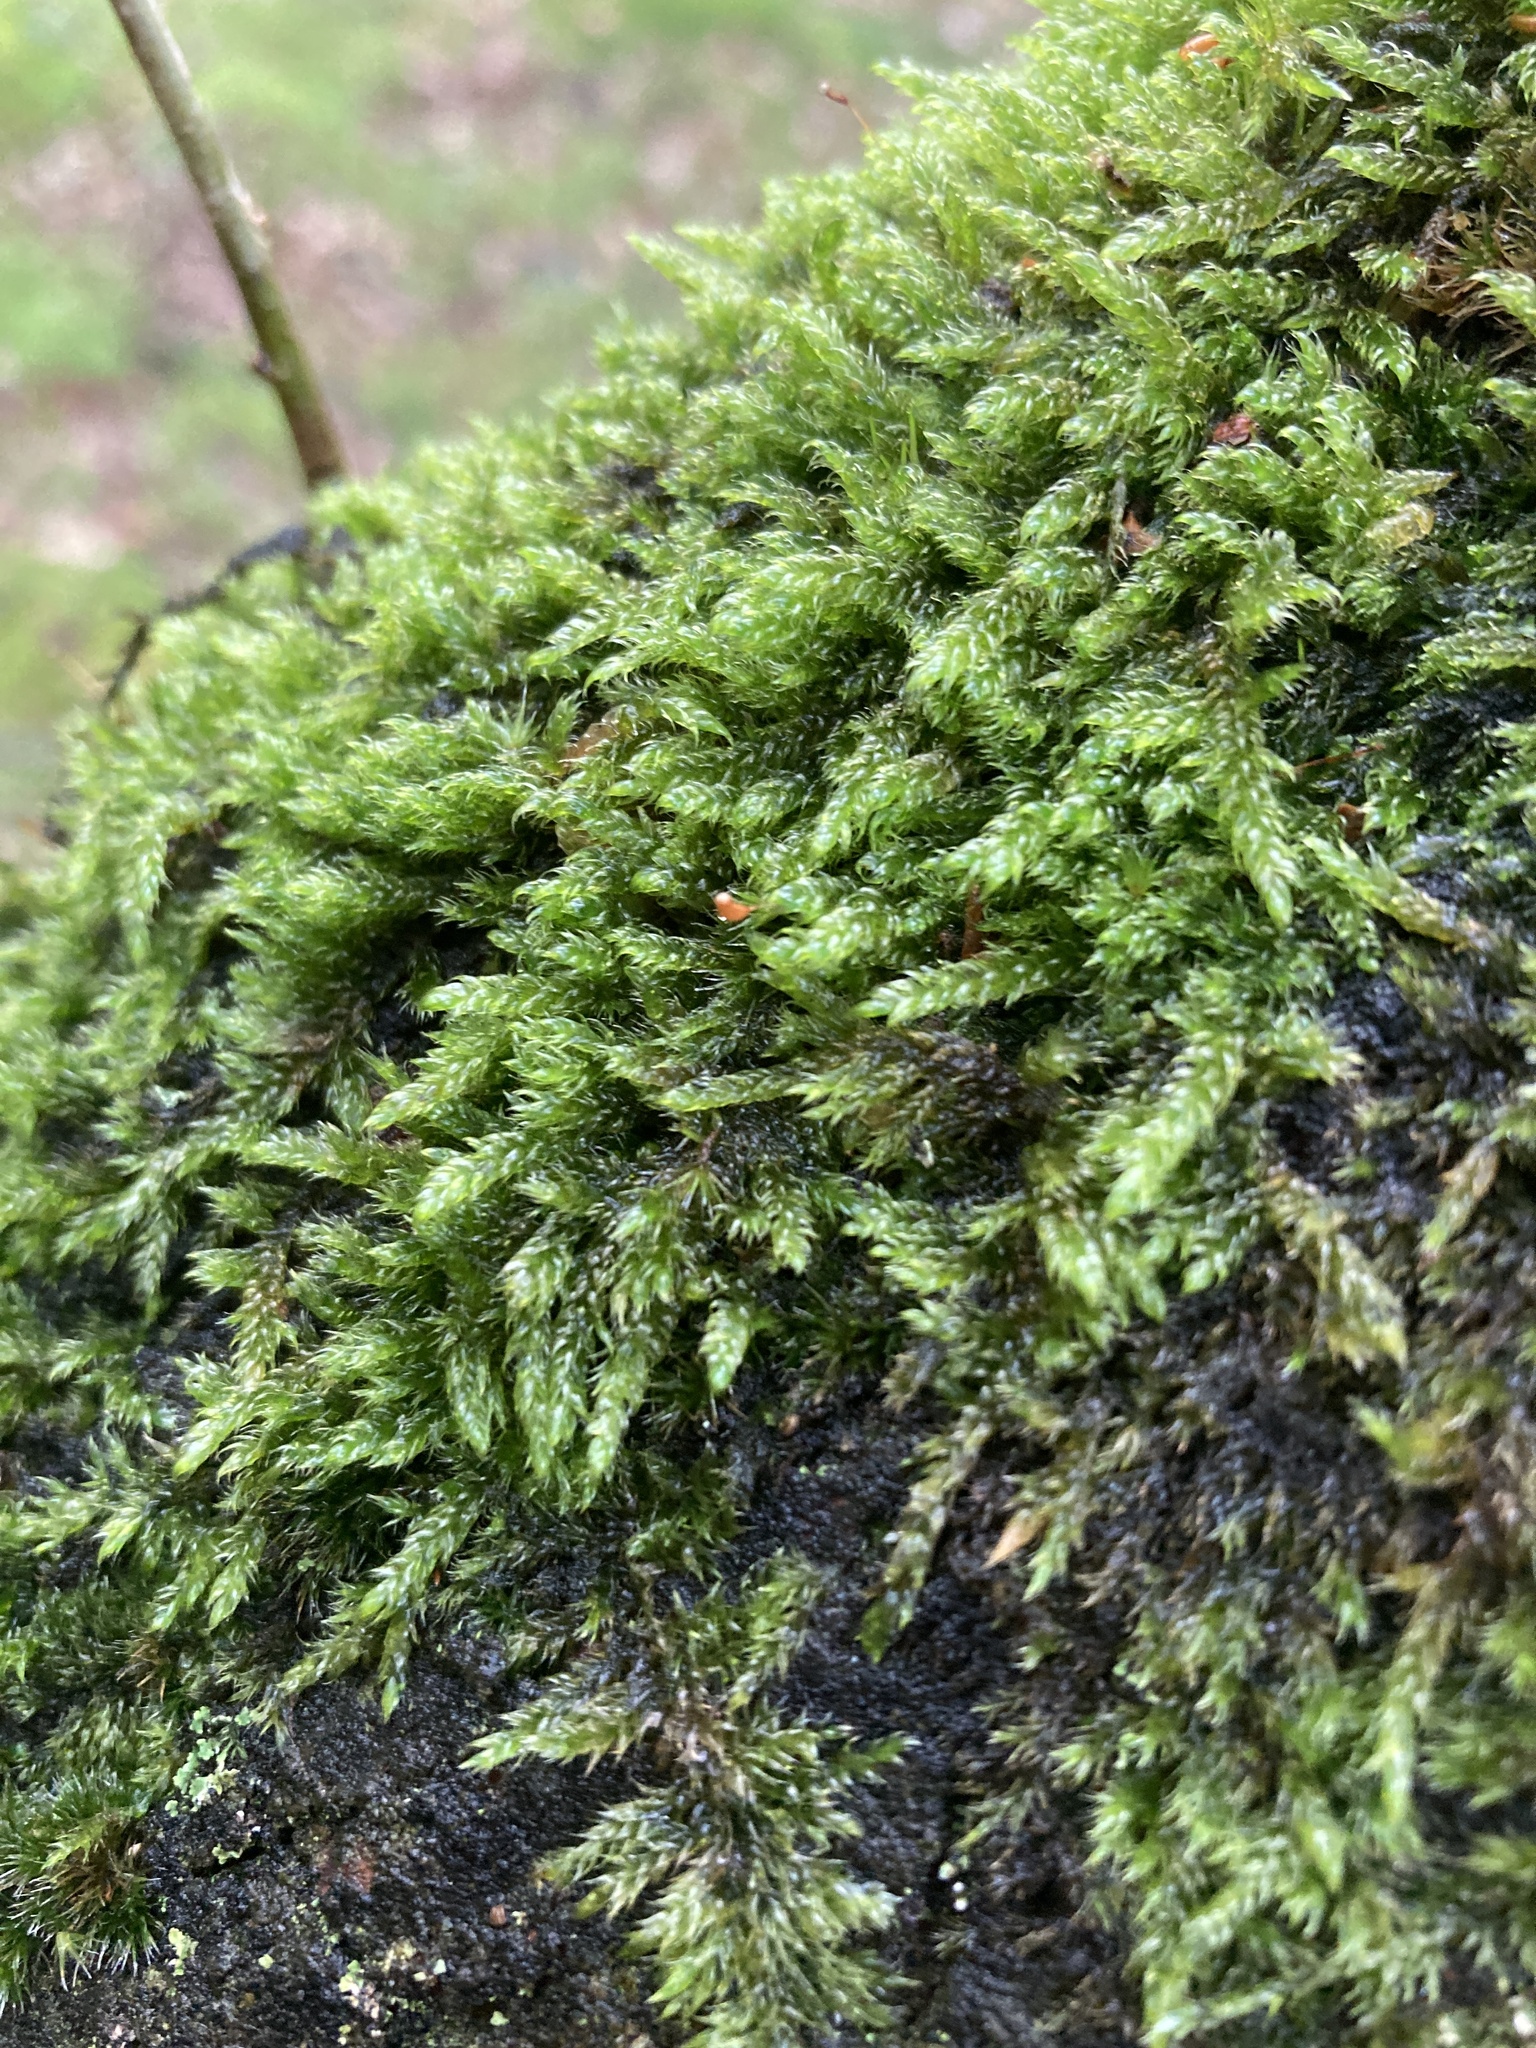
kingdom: Plantae
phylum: Bryophyta
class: Bryopsida
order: Hypnales
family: Hypnaceae
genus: Hypnum
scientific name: Hypnum cupressiforme
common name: Cypress-leaved plait-moss
